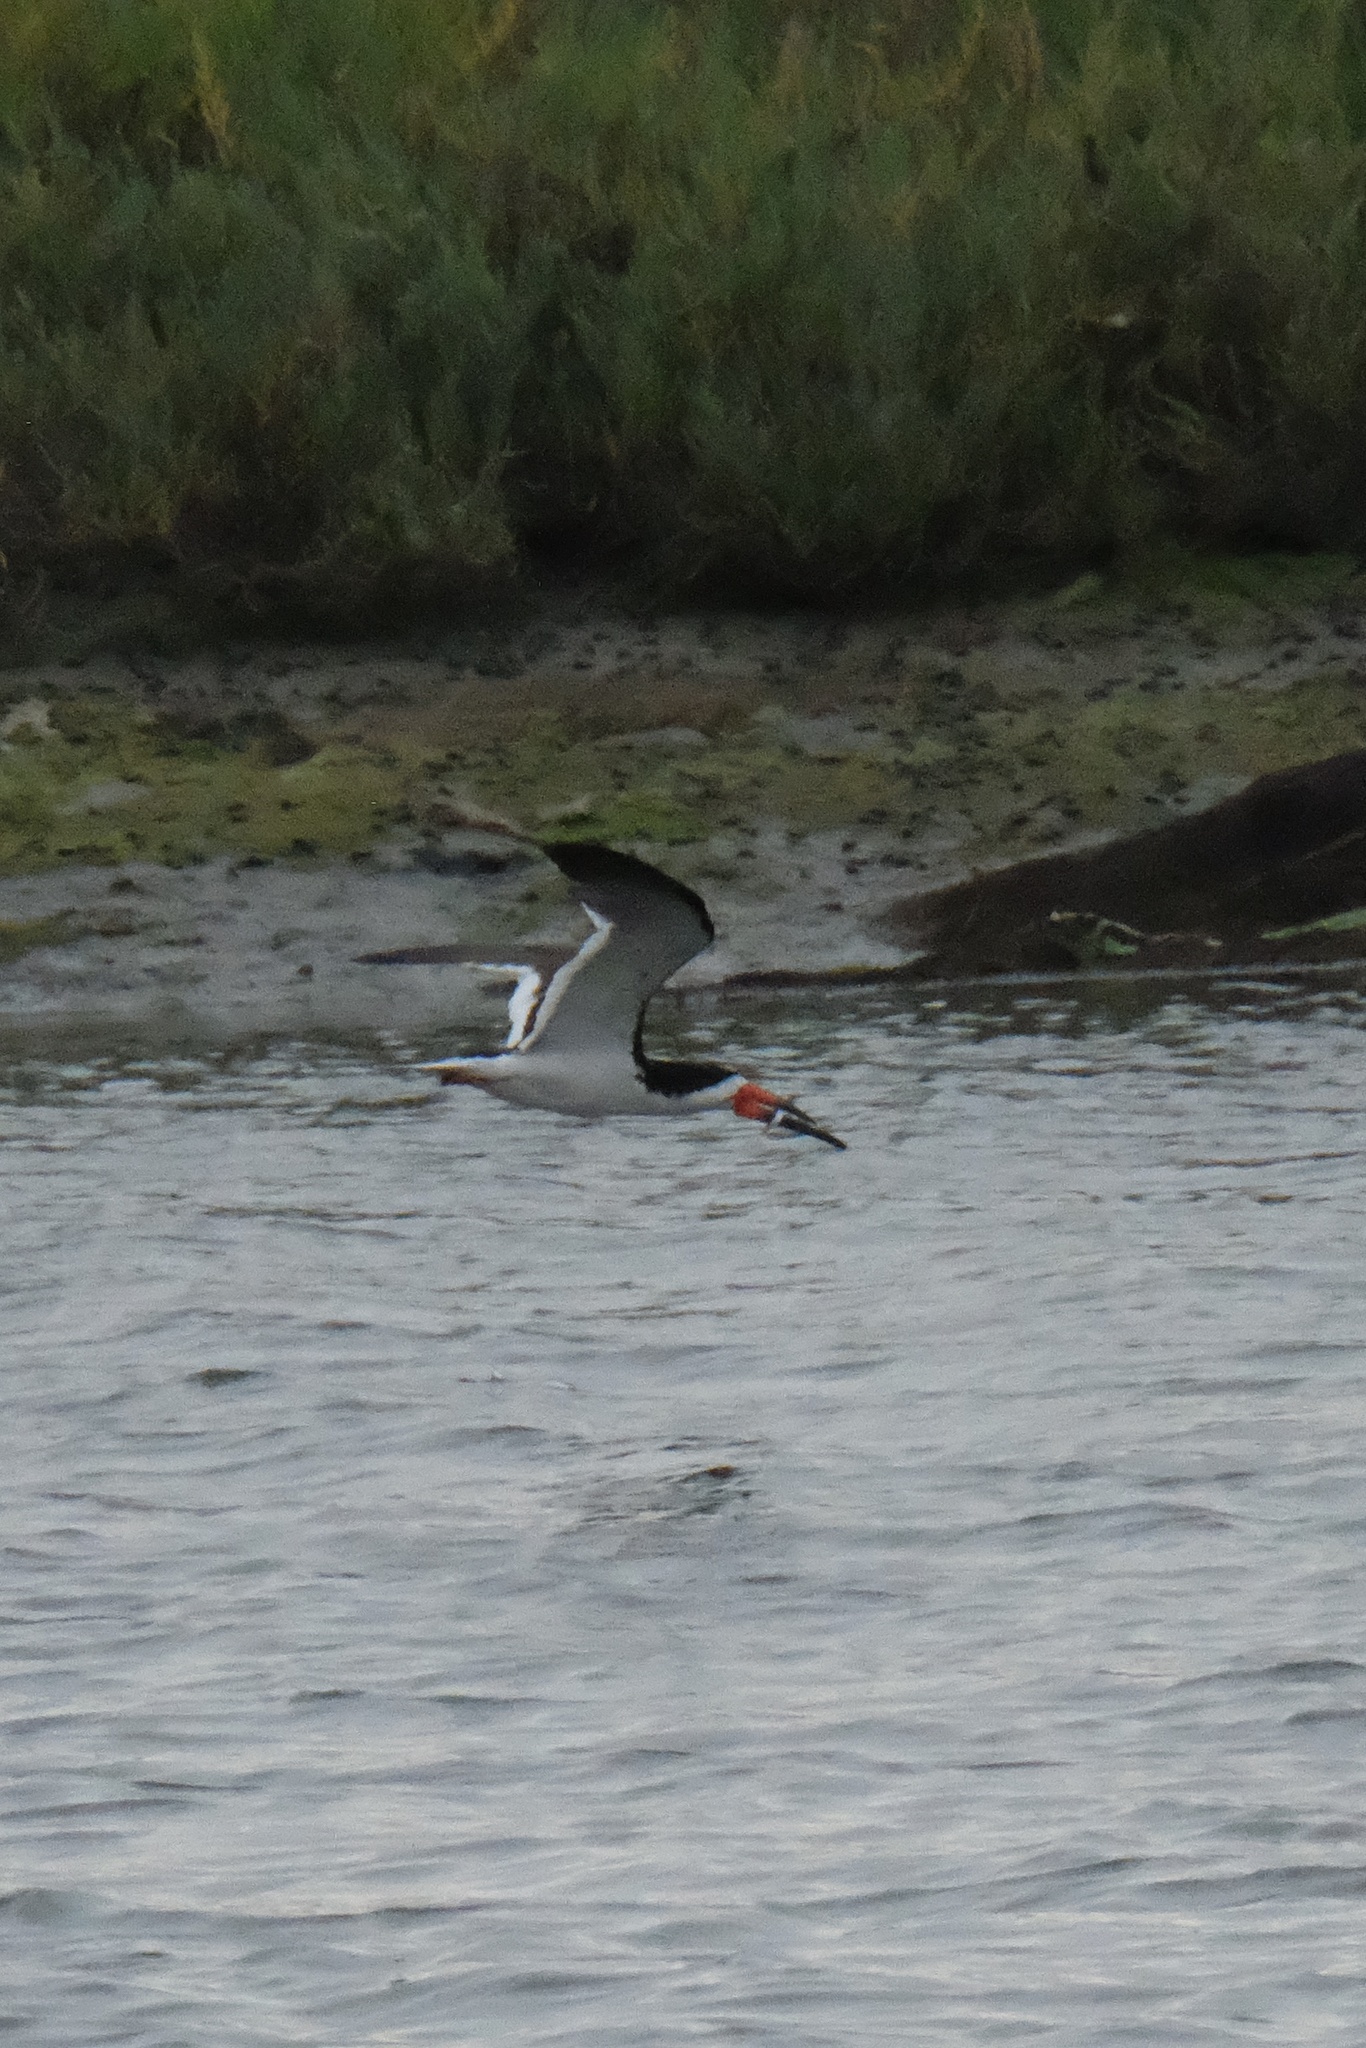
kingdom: Animalia
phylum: Chordata
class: Aves
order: Charadriiformes
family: Laridae
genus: Rynchops
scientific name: Rynchops niger
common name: Black skimmer
